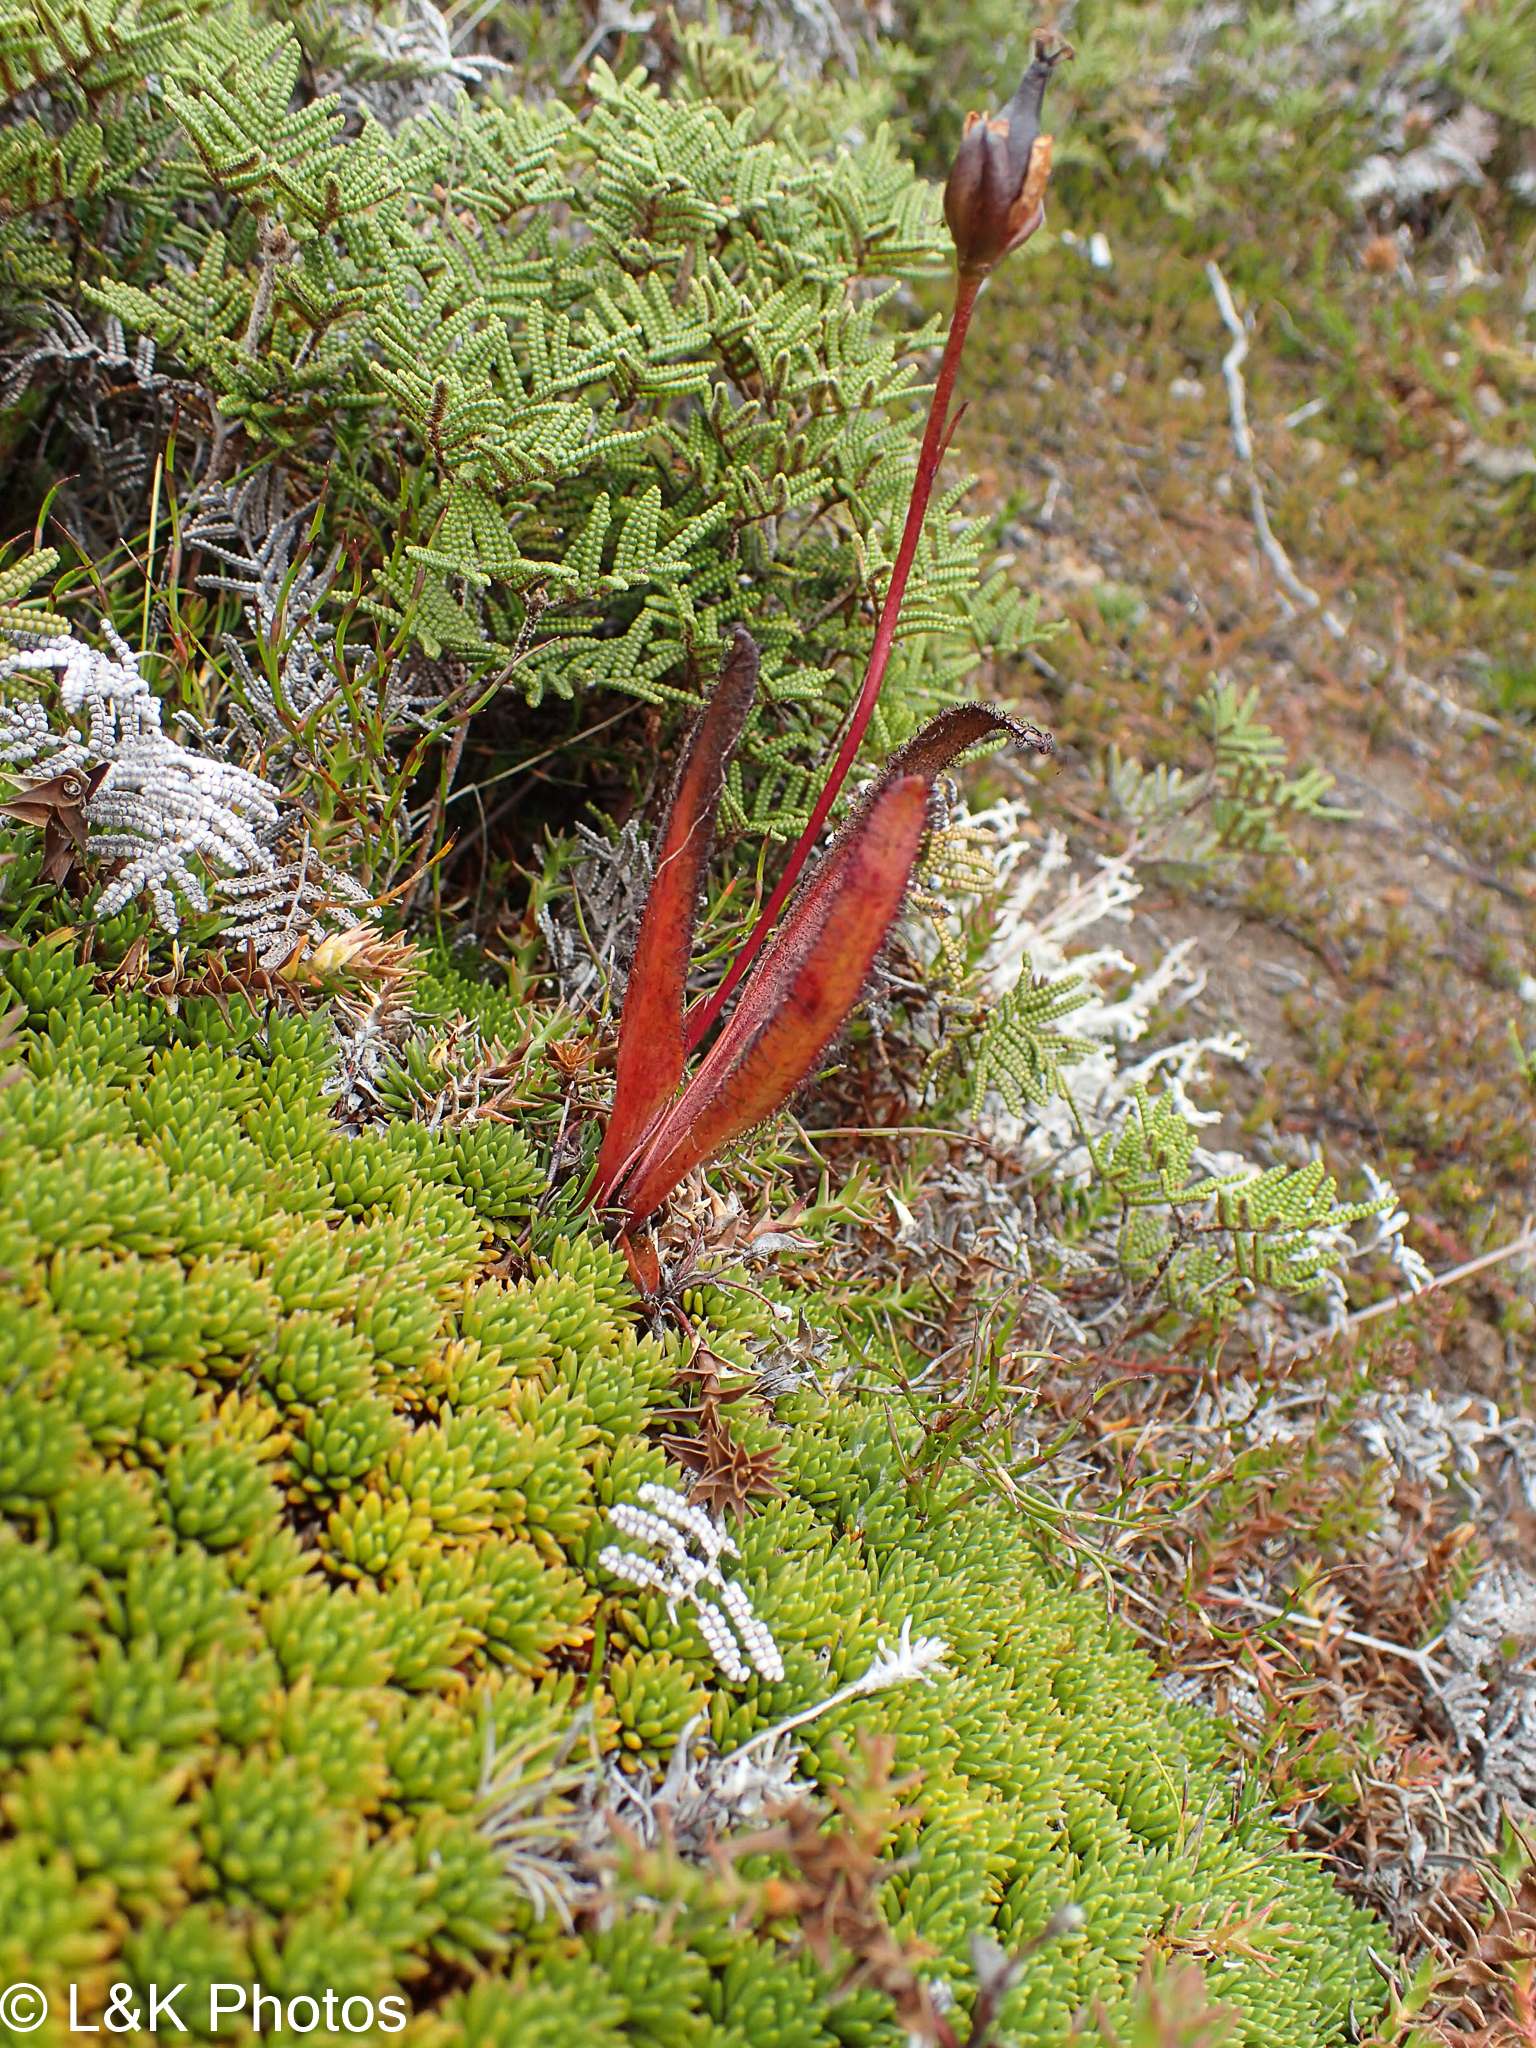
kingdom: Plantae
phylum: Tracheophyta
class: Magnoliopsida
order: Caryophyllales
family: Droseraceae
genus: Drosera
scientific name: Drosera murfetii
